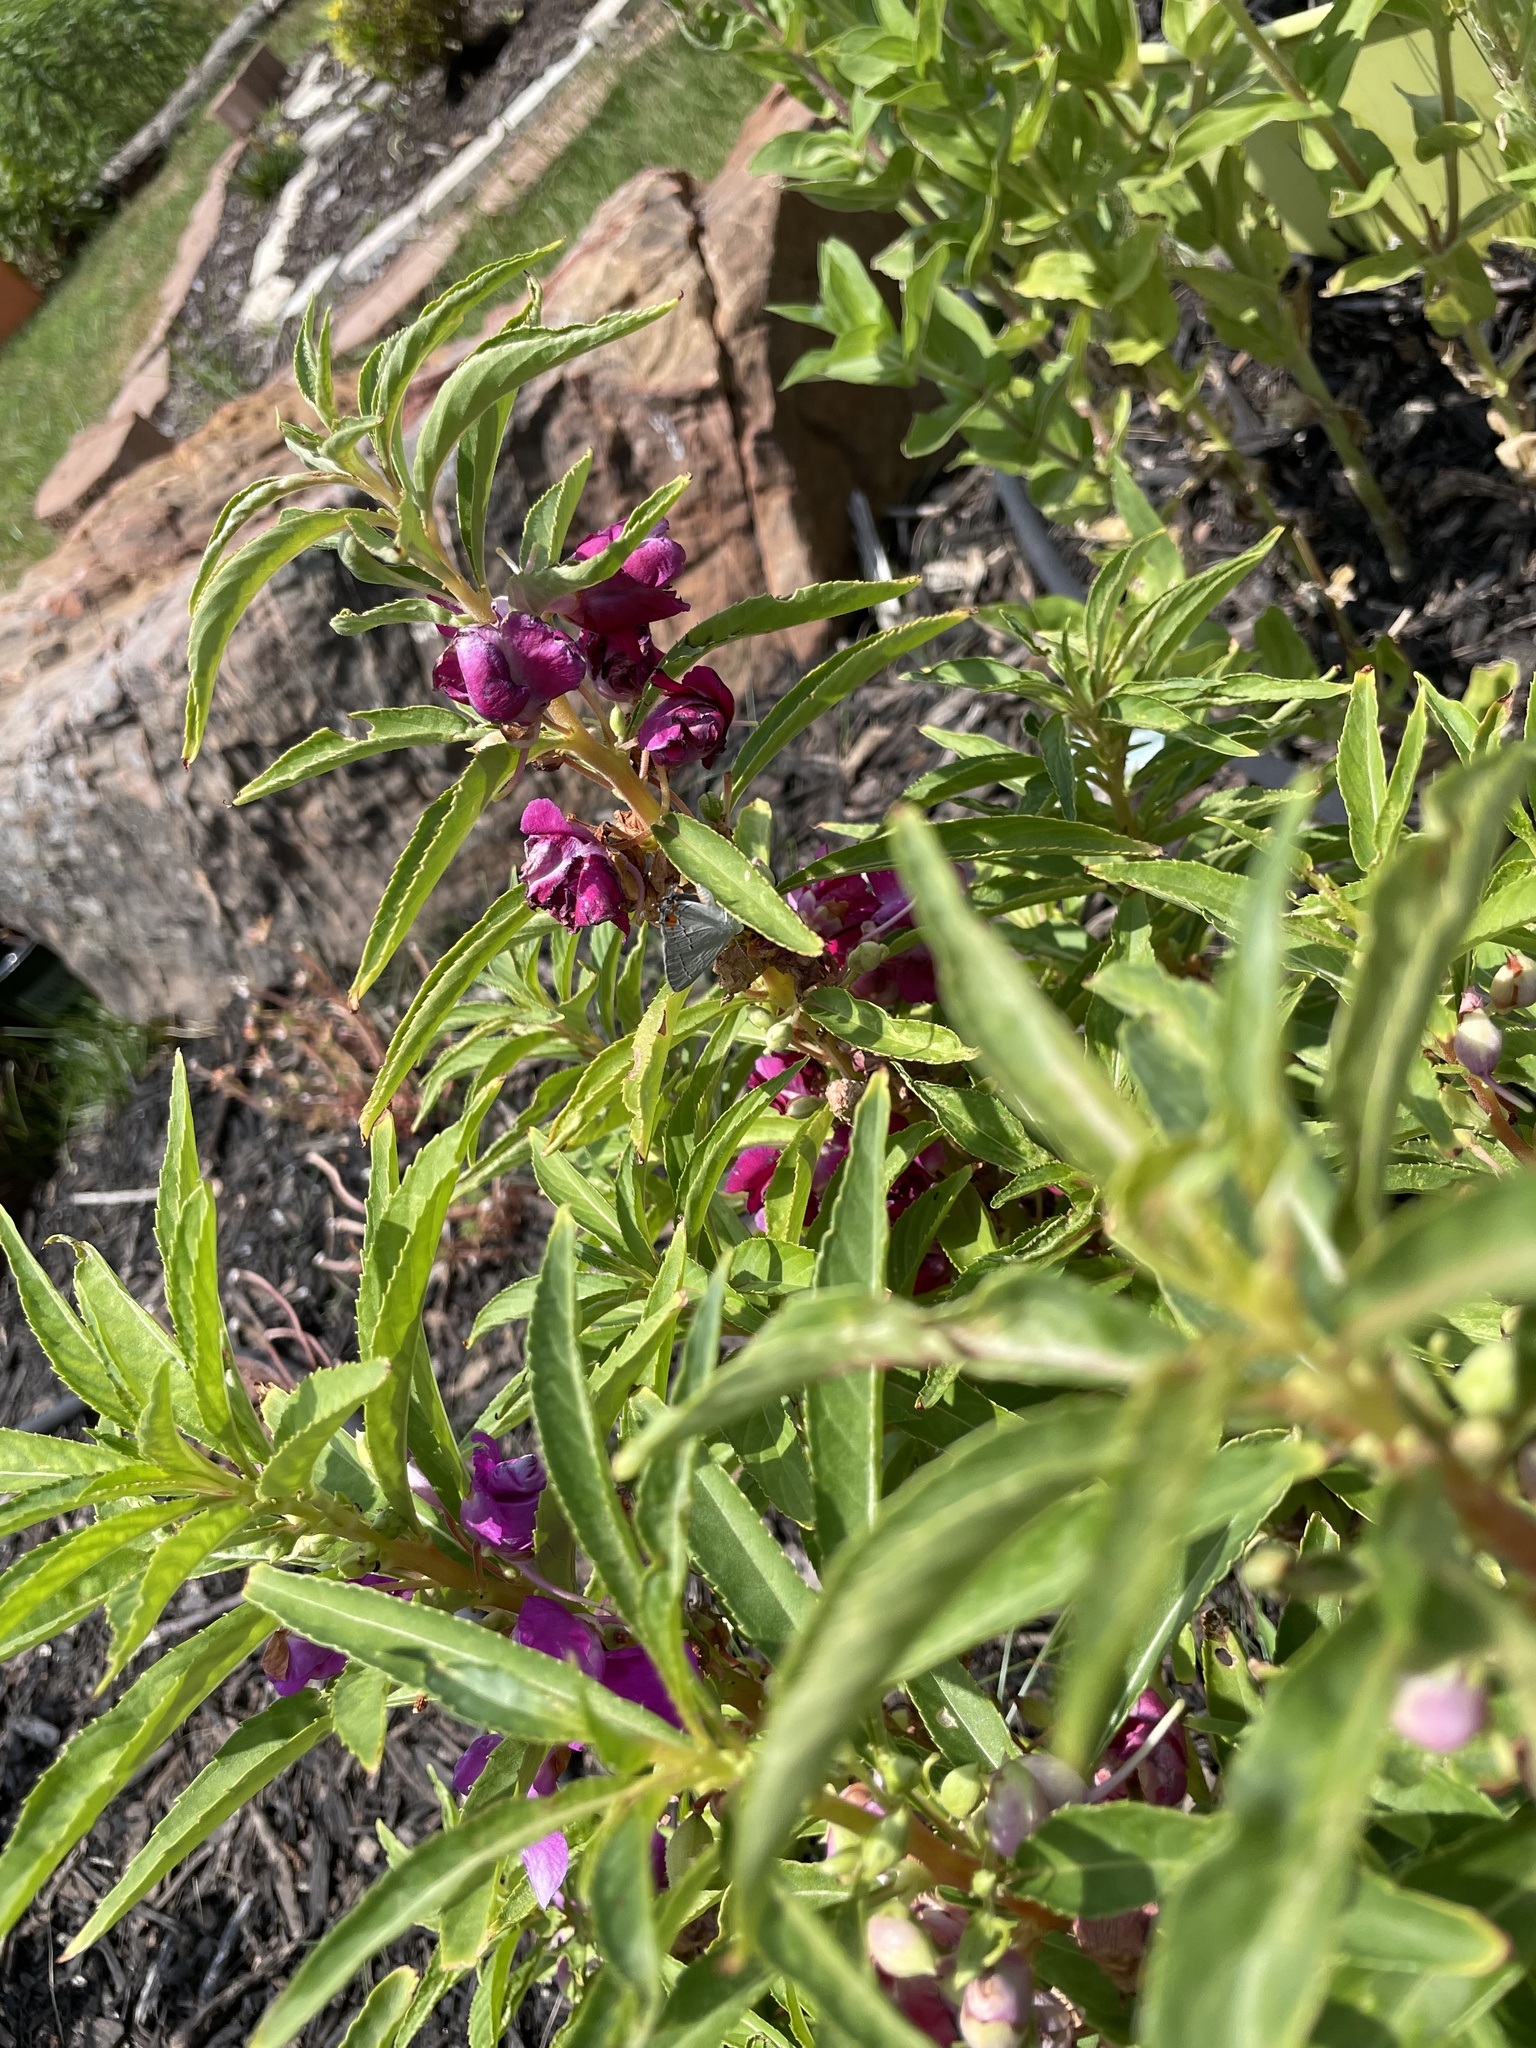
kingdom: Animalia
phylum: Arthropoda
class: Insecta
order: Lepidoptera
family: Lycaenidae
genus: Strymon
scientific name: Strymon melinus
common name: Gray hairstreak
